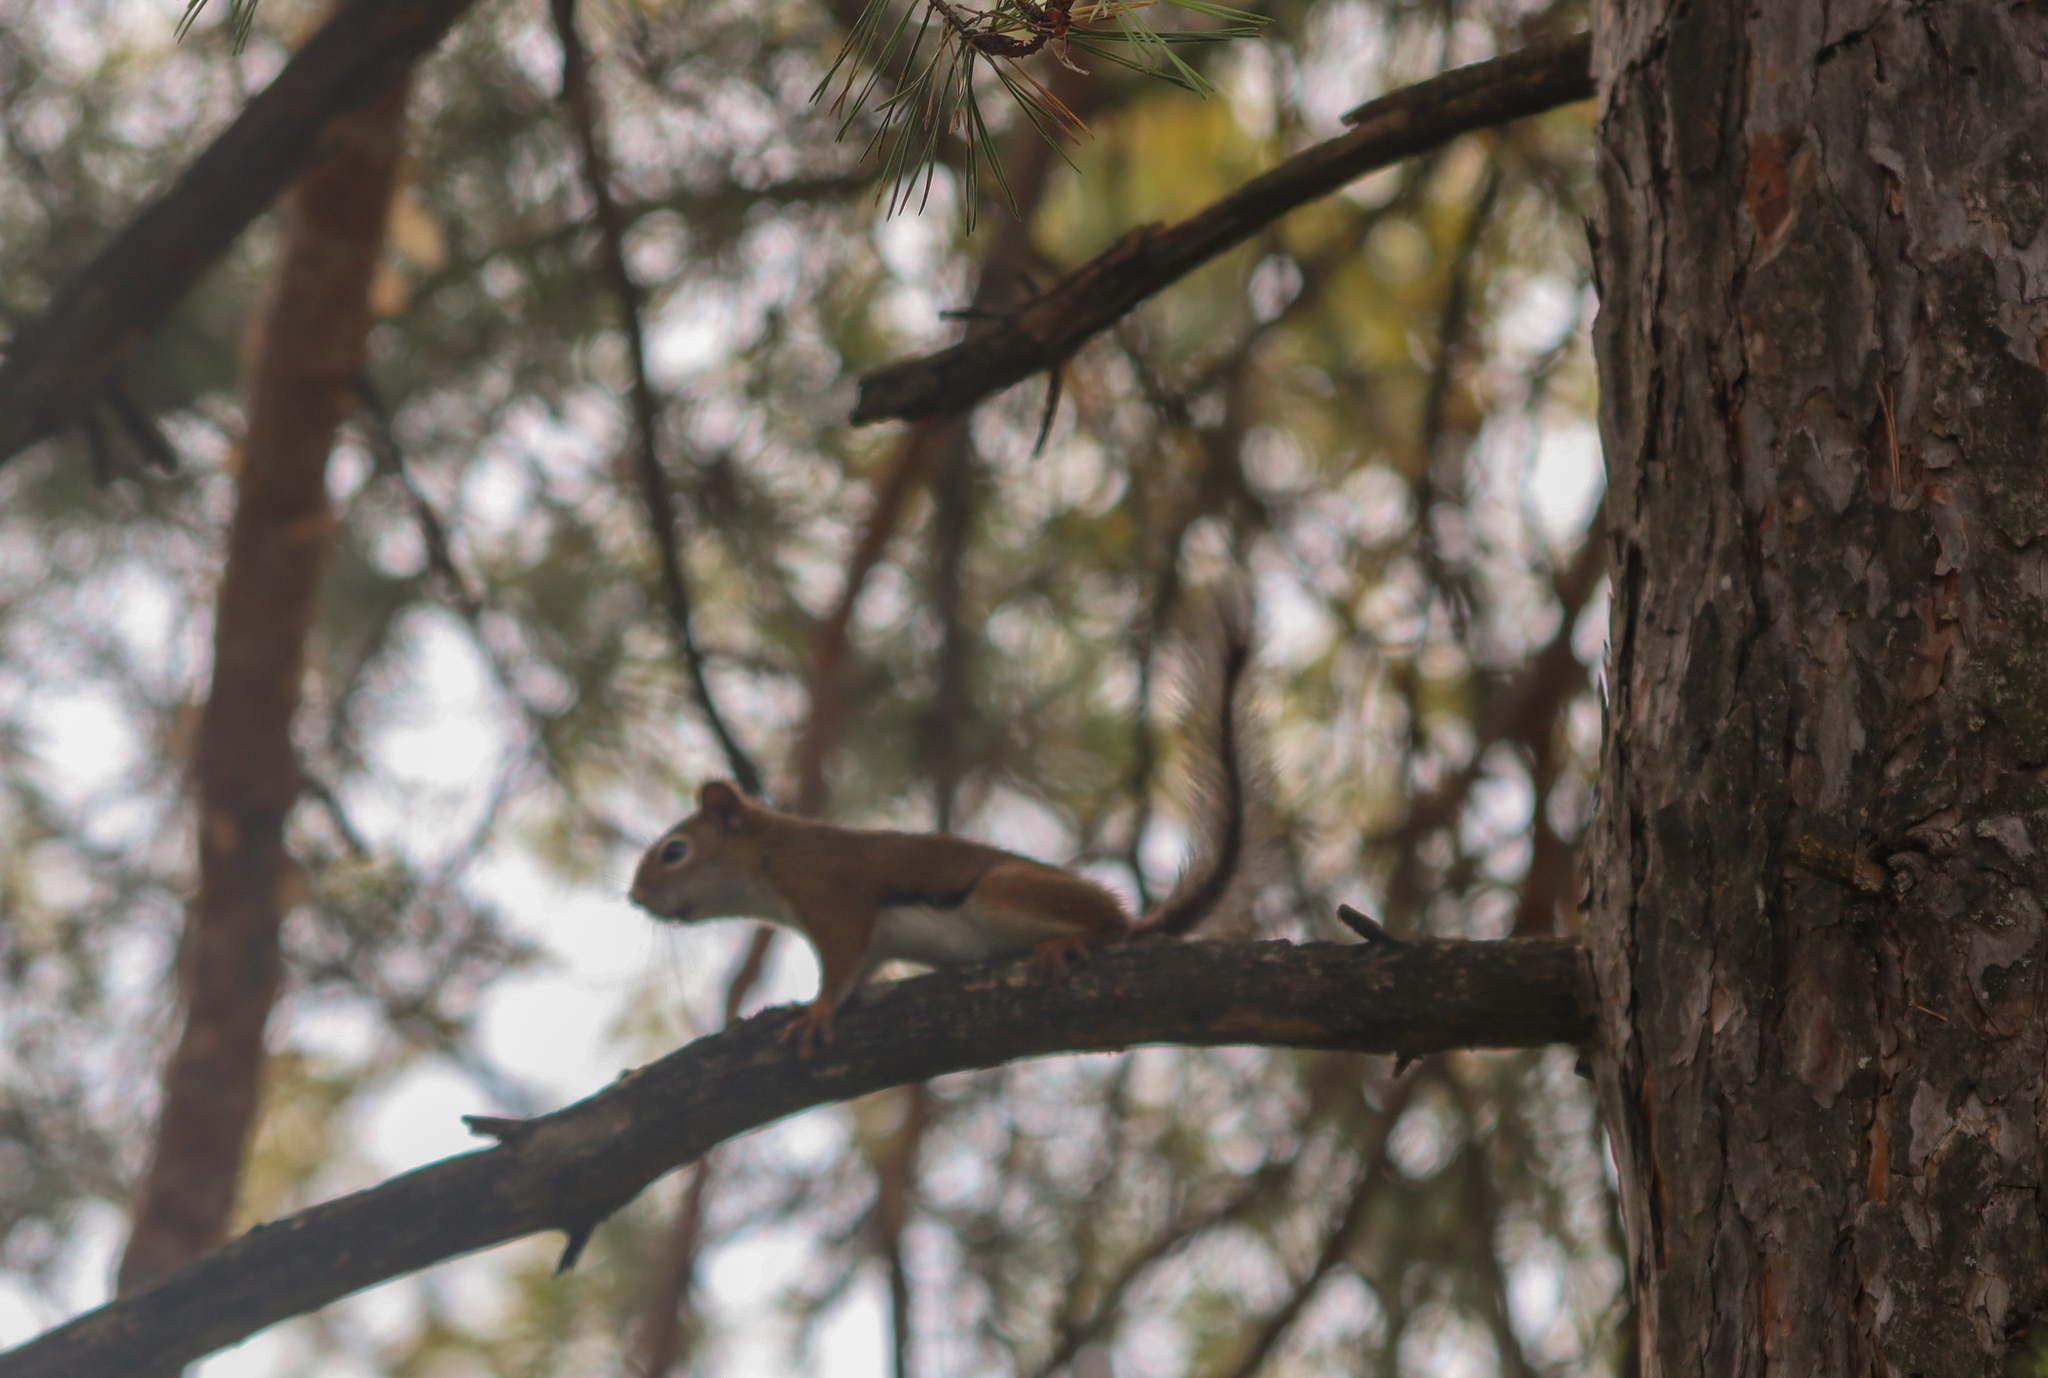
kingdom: Animalia
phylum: Chordata
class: Mammalia
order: Rodentia
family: Sciuridae
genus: Tamiasciurus
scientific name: Tamiasciurus hudsonicus
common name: Red squirrel
